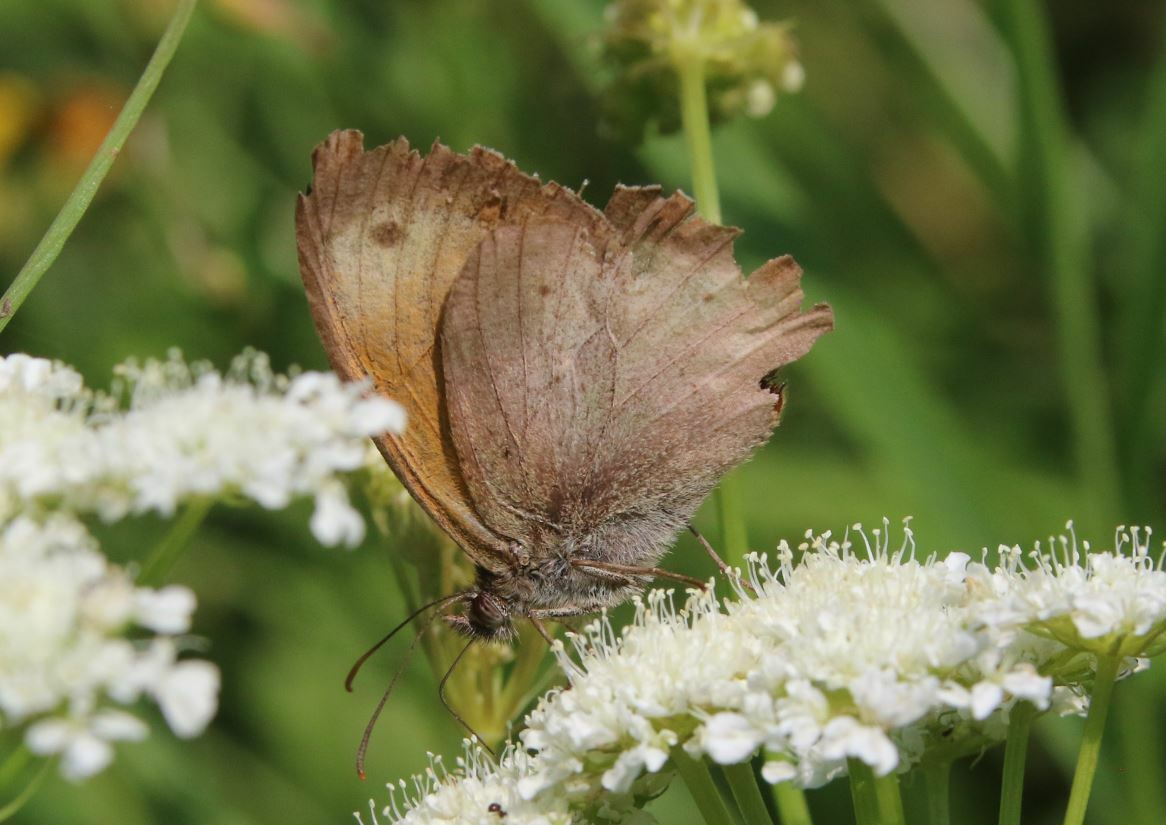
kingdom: Animalia
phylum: Arthropoda
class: Insecta
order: Lepidoptera
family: Nymphalidae
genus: Maniola
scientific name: Maniola jurtina
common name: Meadow brown
